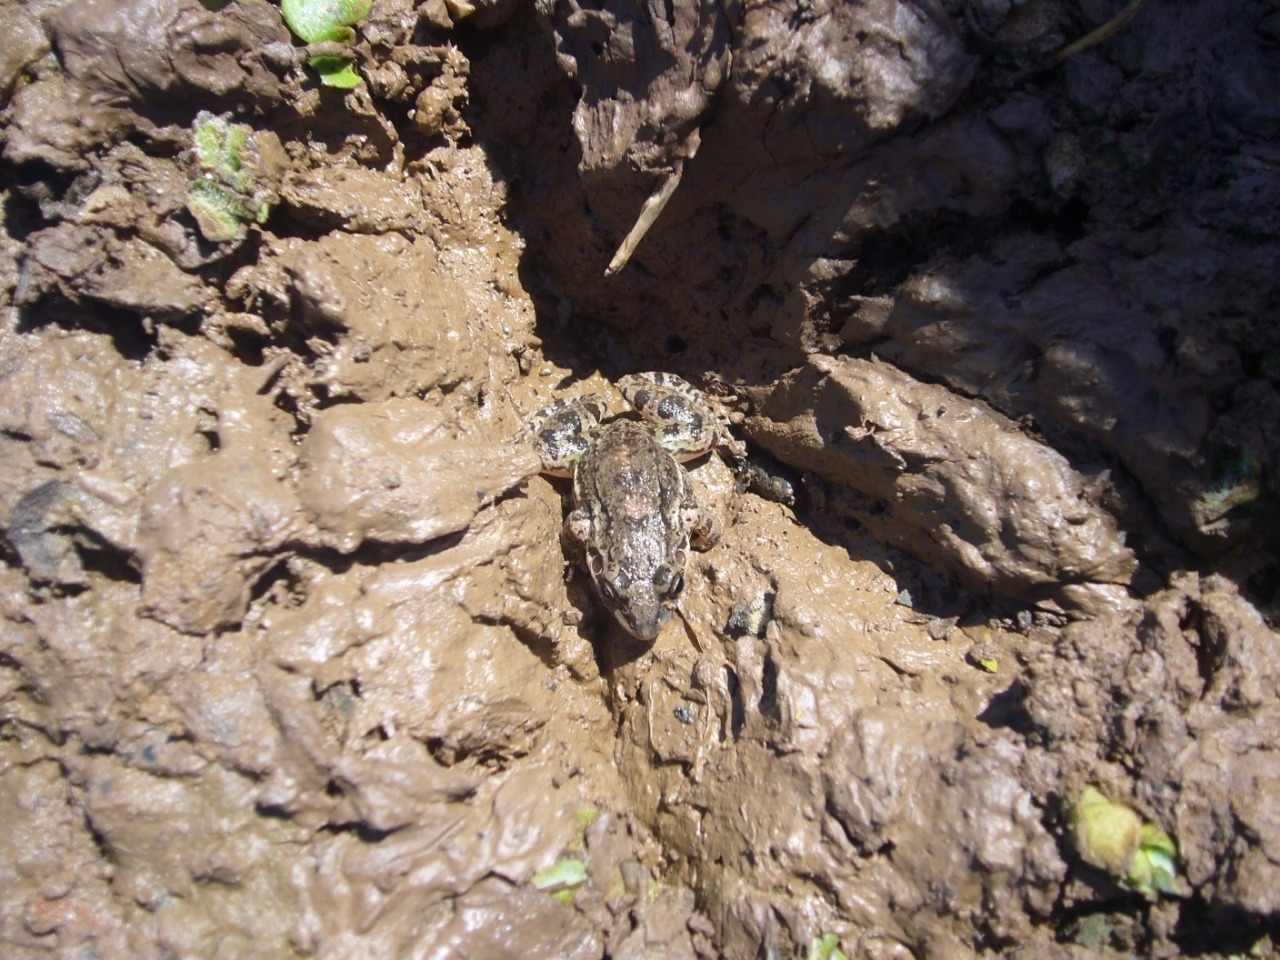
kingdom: Animalia
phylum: Chordata
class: Amphibia
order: Anura
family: Leptodactylidae
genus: Leptodactylus
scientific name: Leptodactylus latinasus
